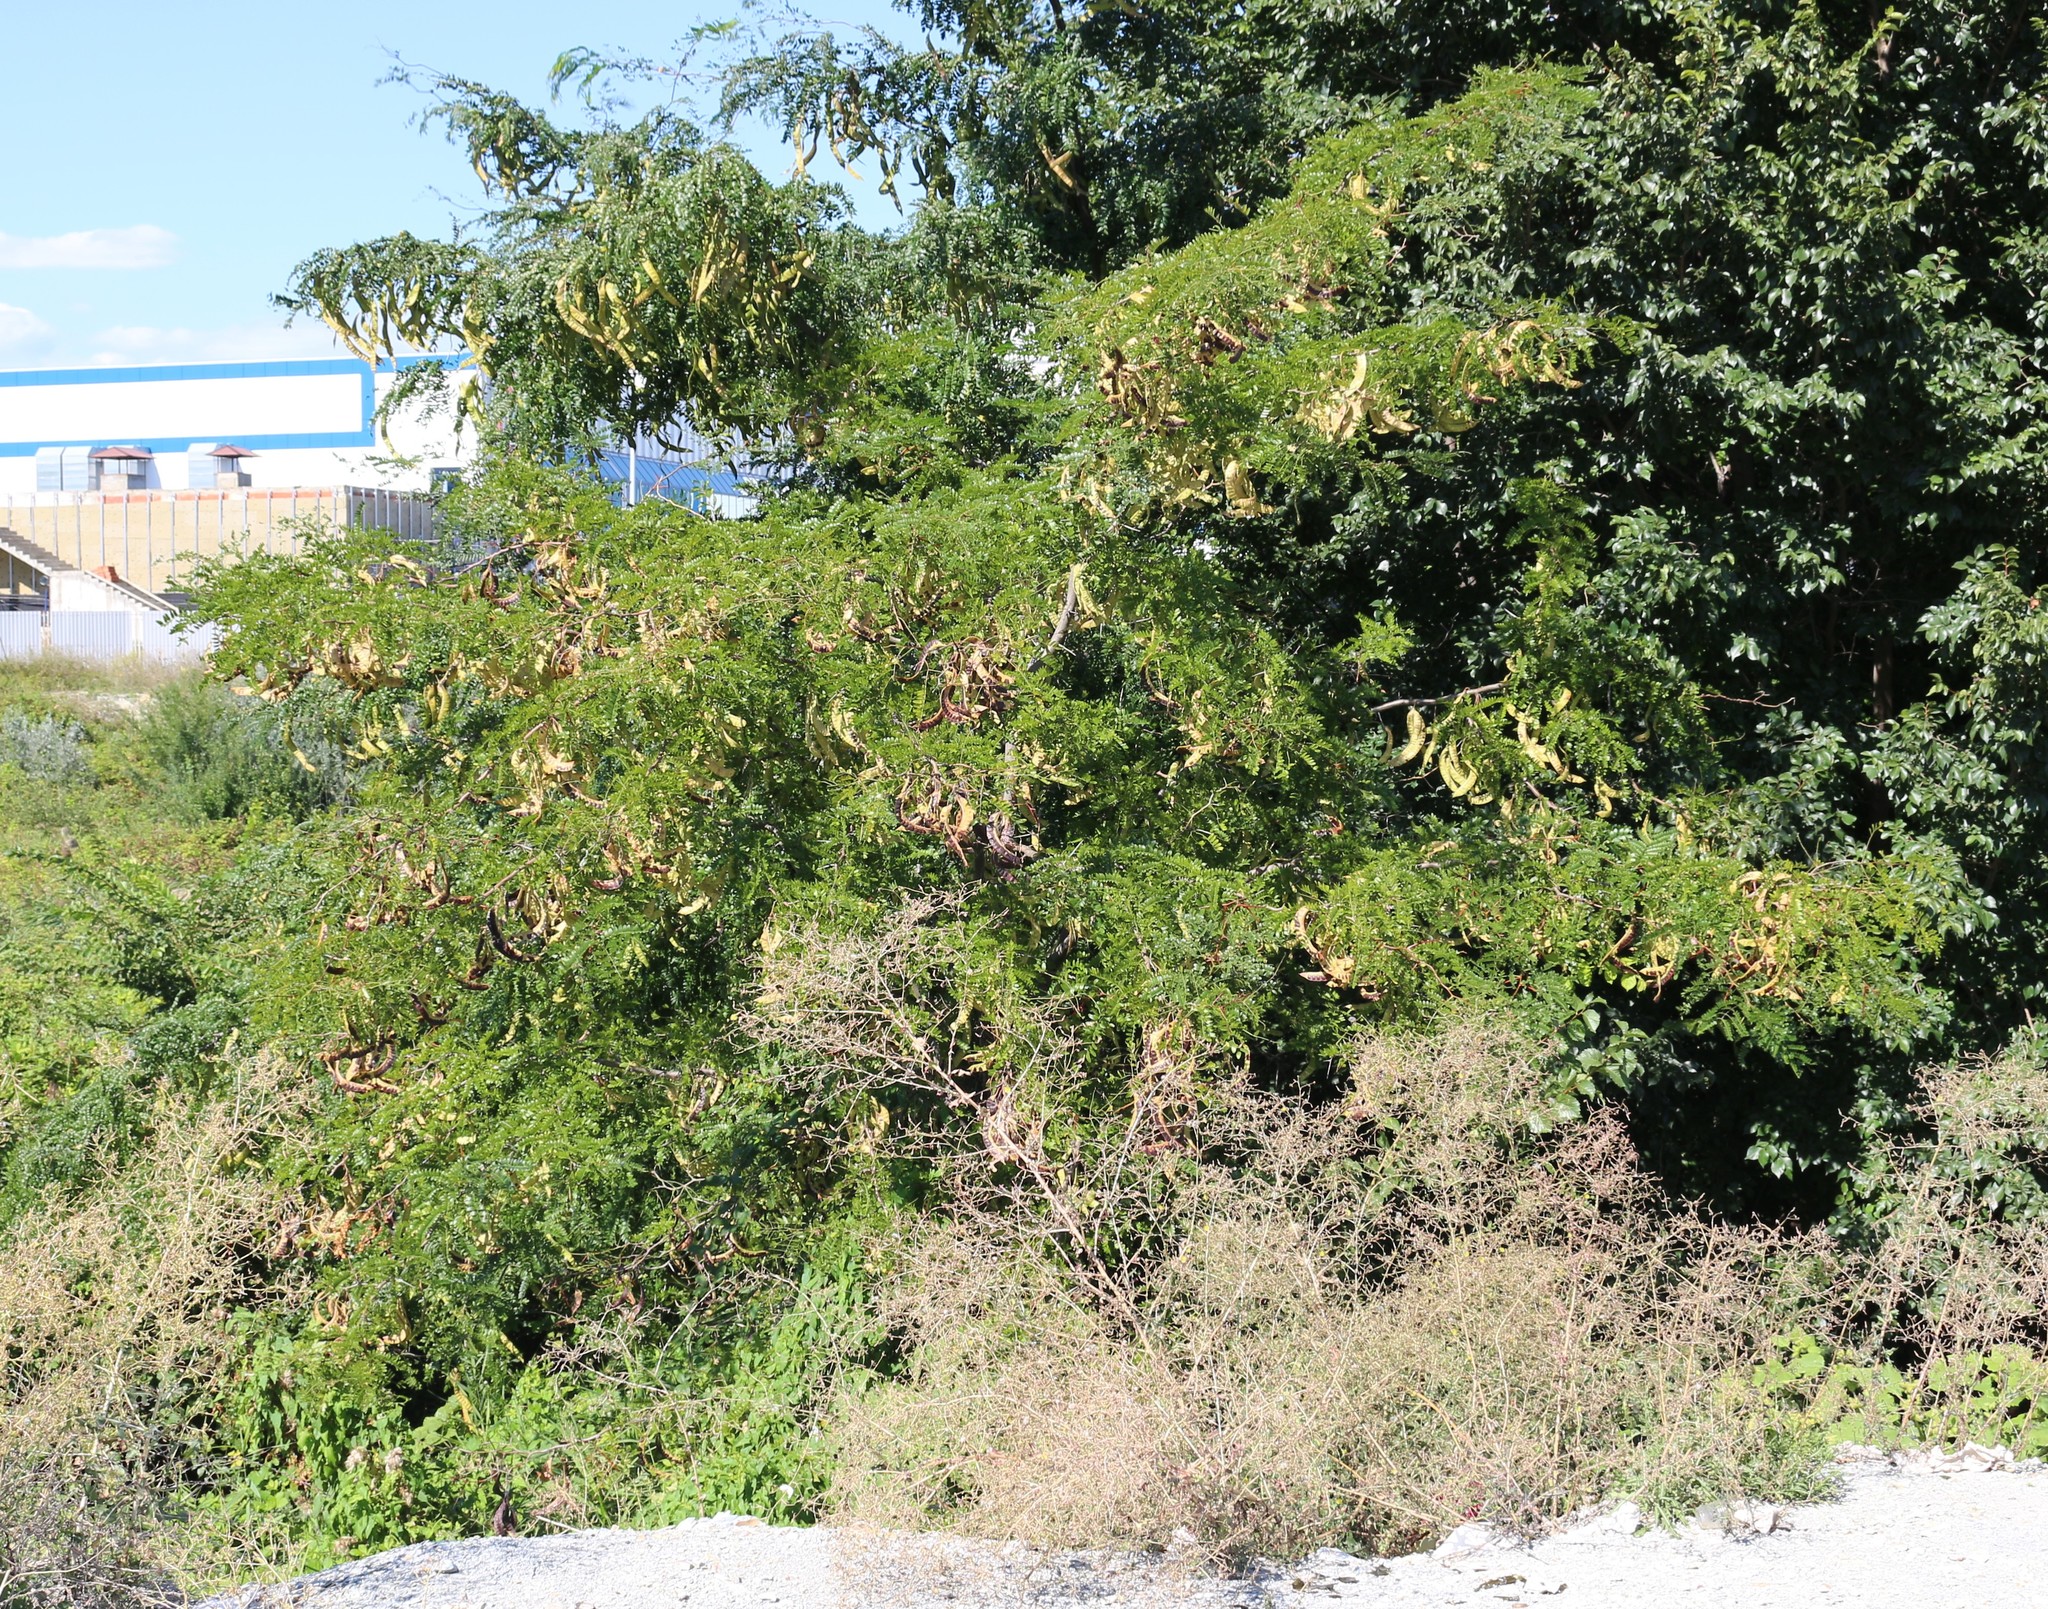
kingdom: Plantae
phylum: Tracheophyta
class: Magnoliopsida
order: Fabales
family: Fabaceae
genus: Gleditsia
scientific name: Gleditsia triacanthos
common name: Common honeylocust
